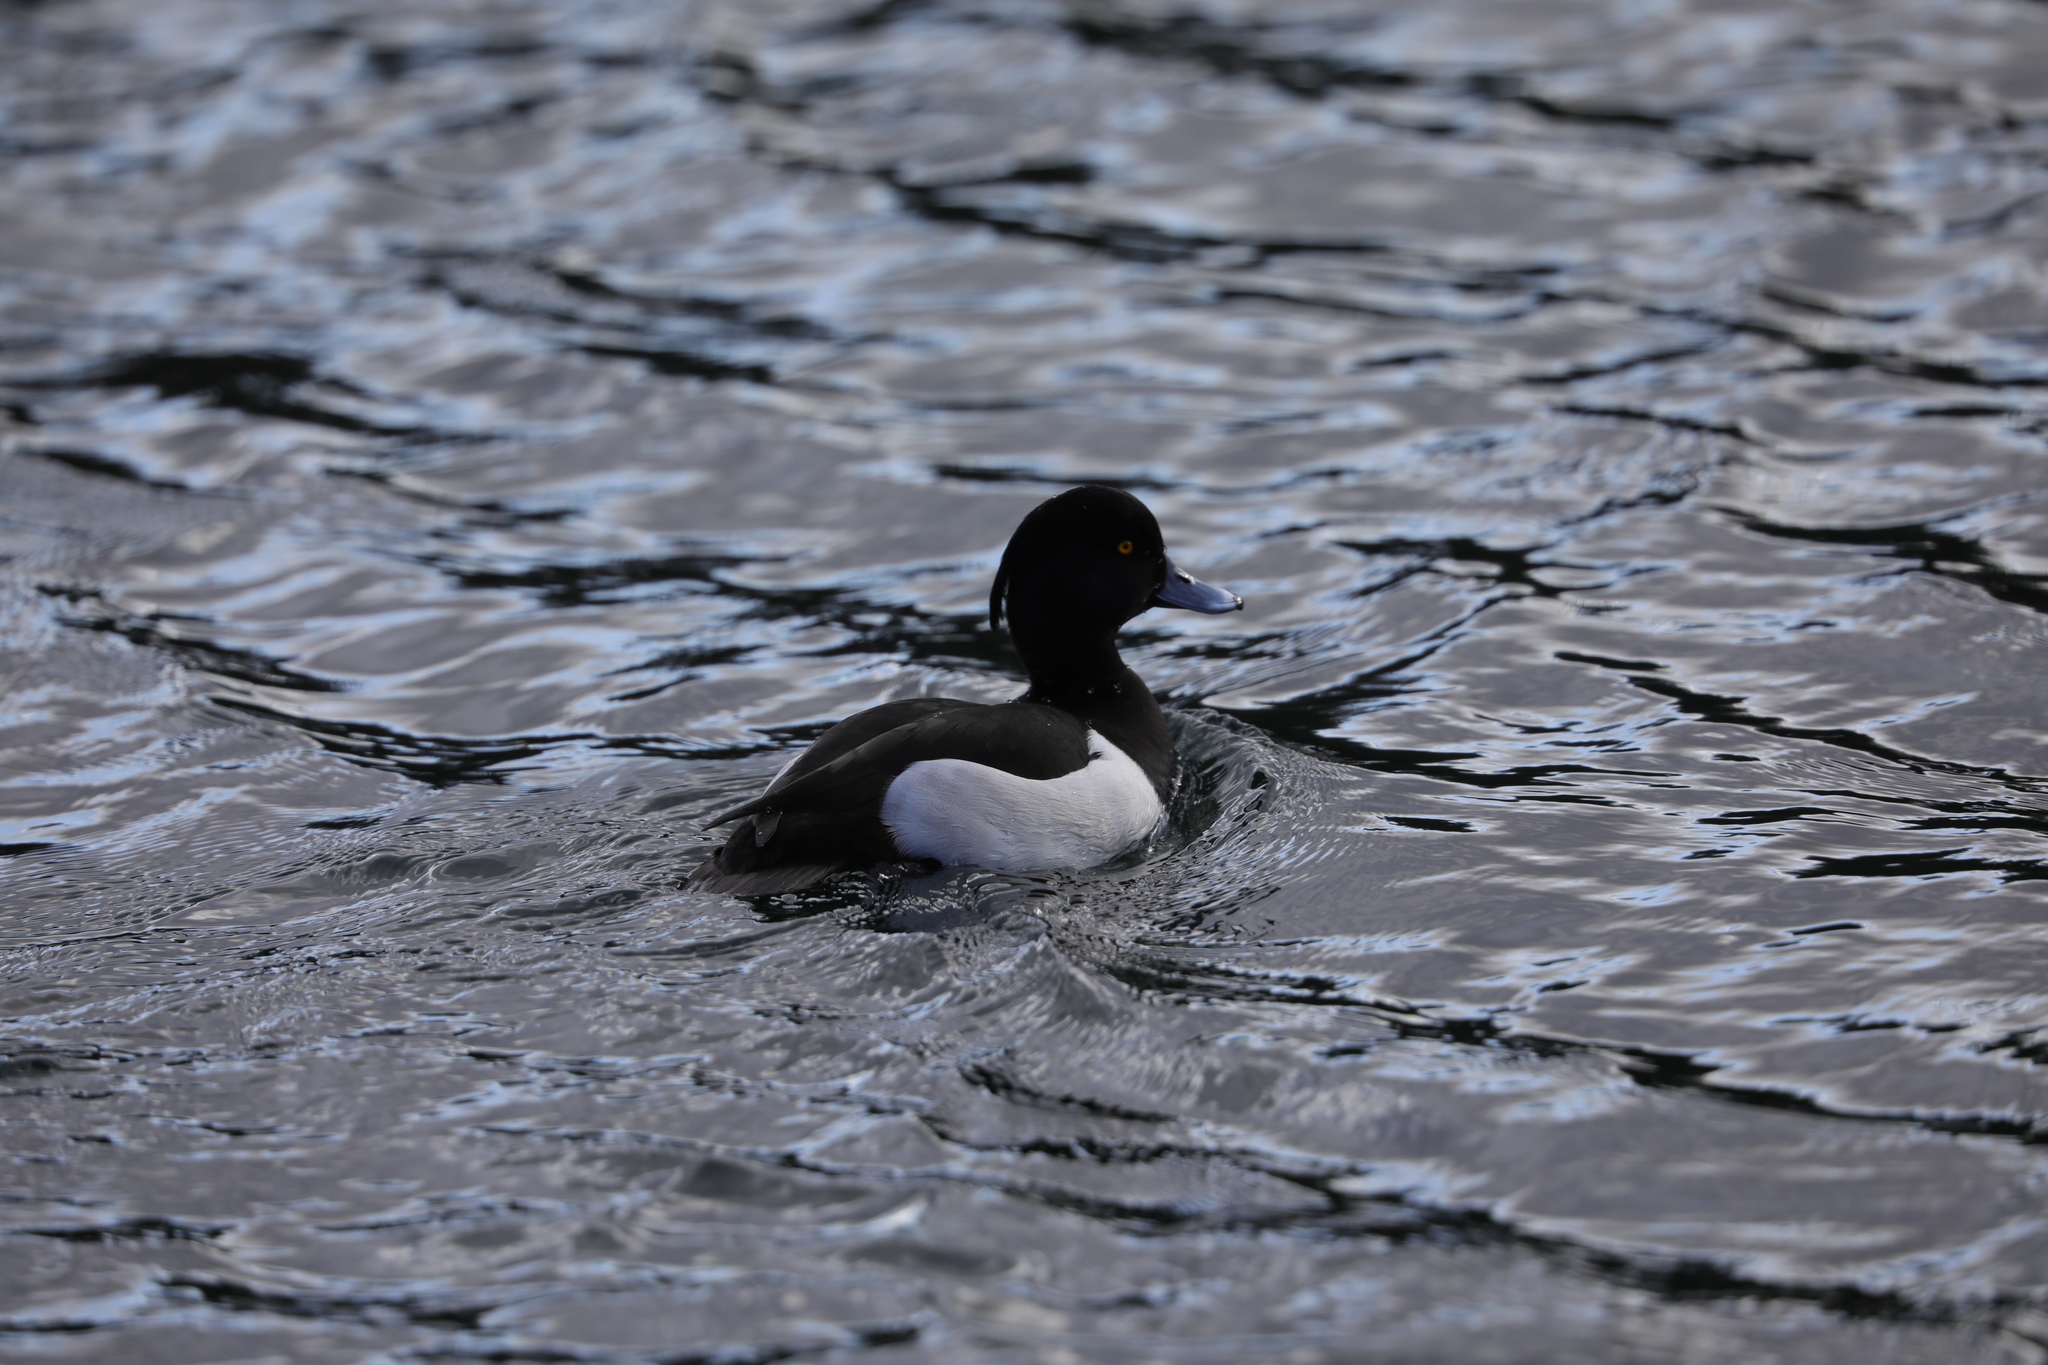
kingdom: Animalia
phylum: Chordata
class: Aves
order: Anseriformes
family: Anatidae
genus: Aythya
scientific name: Aythya fuligula
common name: Tufted duck
